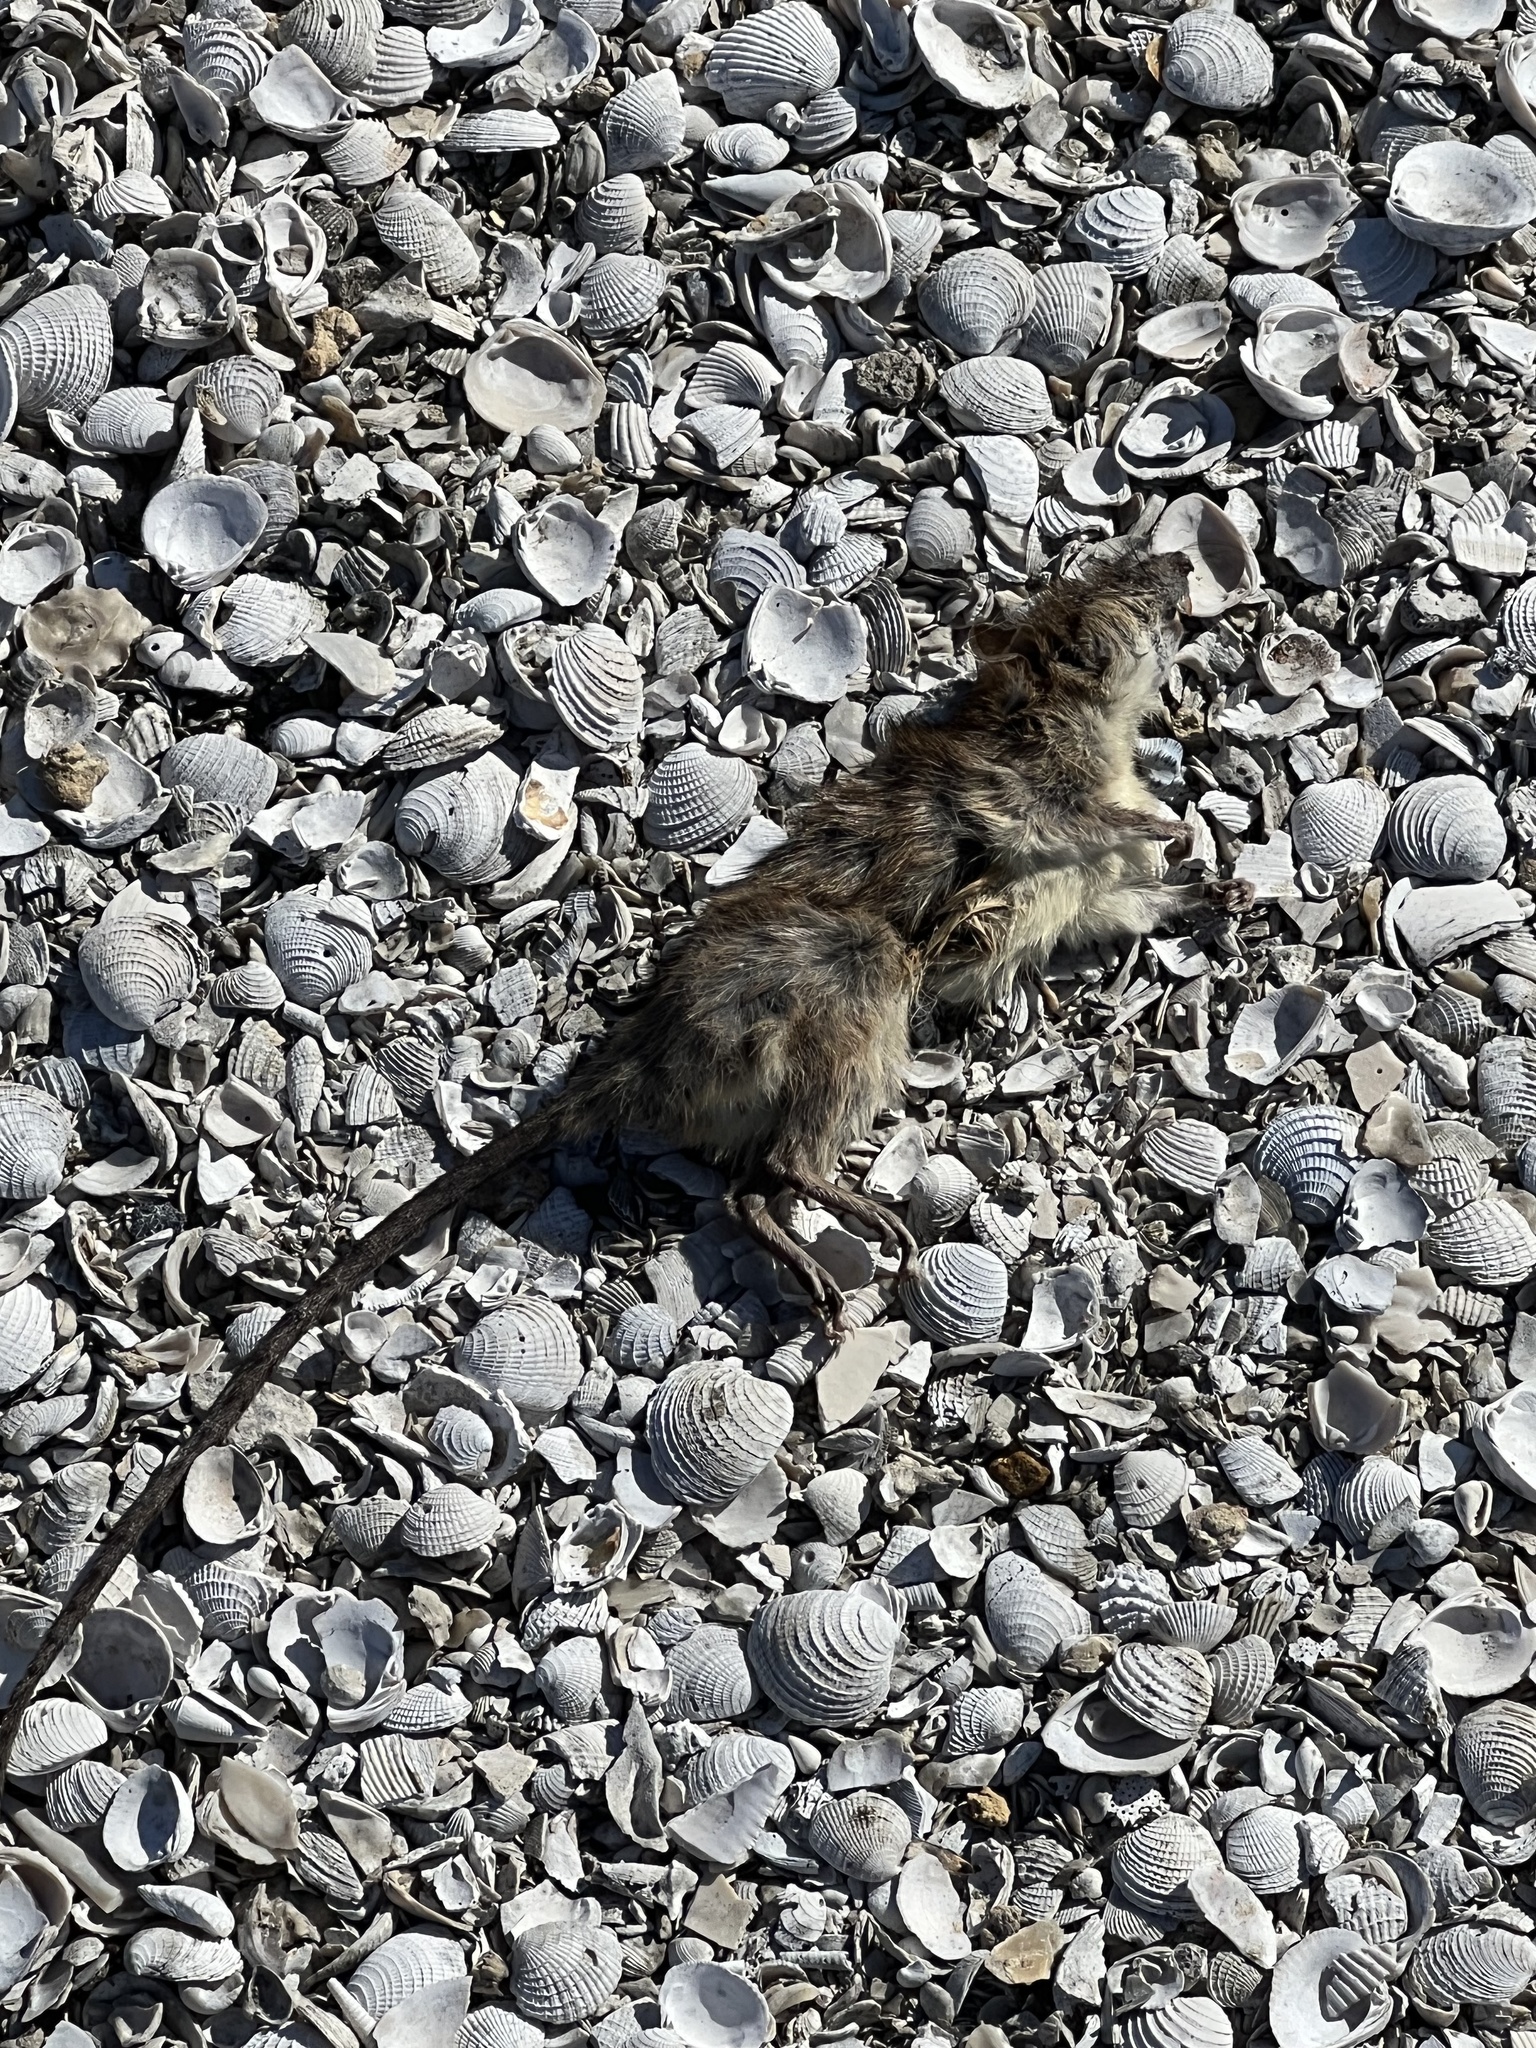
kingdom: Animalia
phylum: Chordata
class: Mammalia
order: Rodentia
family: Muridae
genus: Rattus
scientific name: Rattus rattus
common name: Black rat
